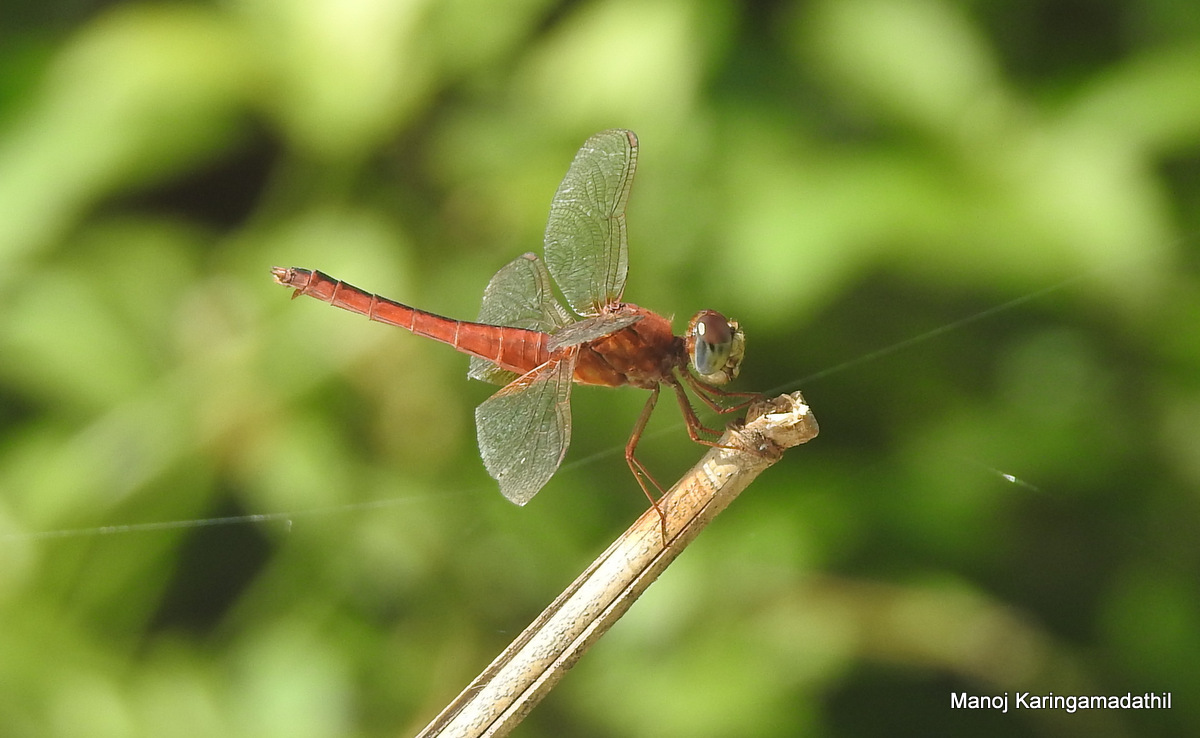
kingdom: Animalia
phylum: Arthropoda
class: Insecta
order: Odonata
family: Libellulidae
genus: Crocothemis
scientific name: Crocothemis servilia
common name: Scarlet skimmer
